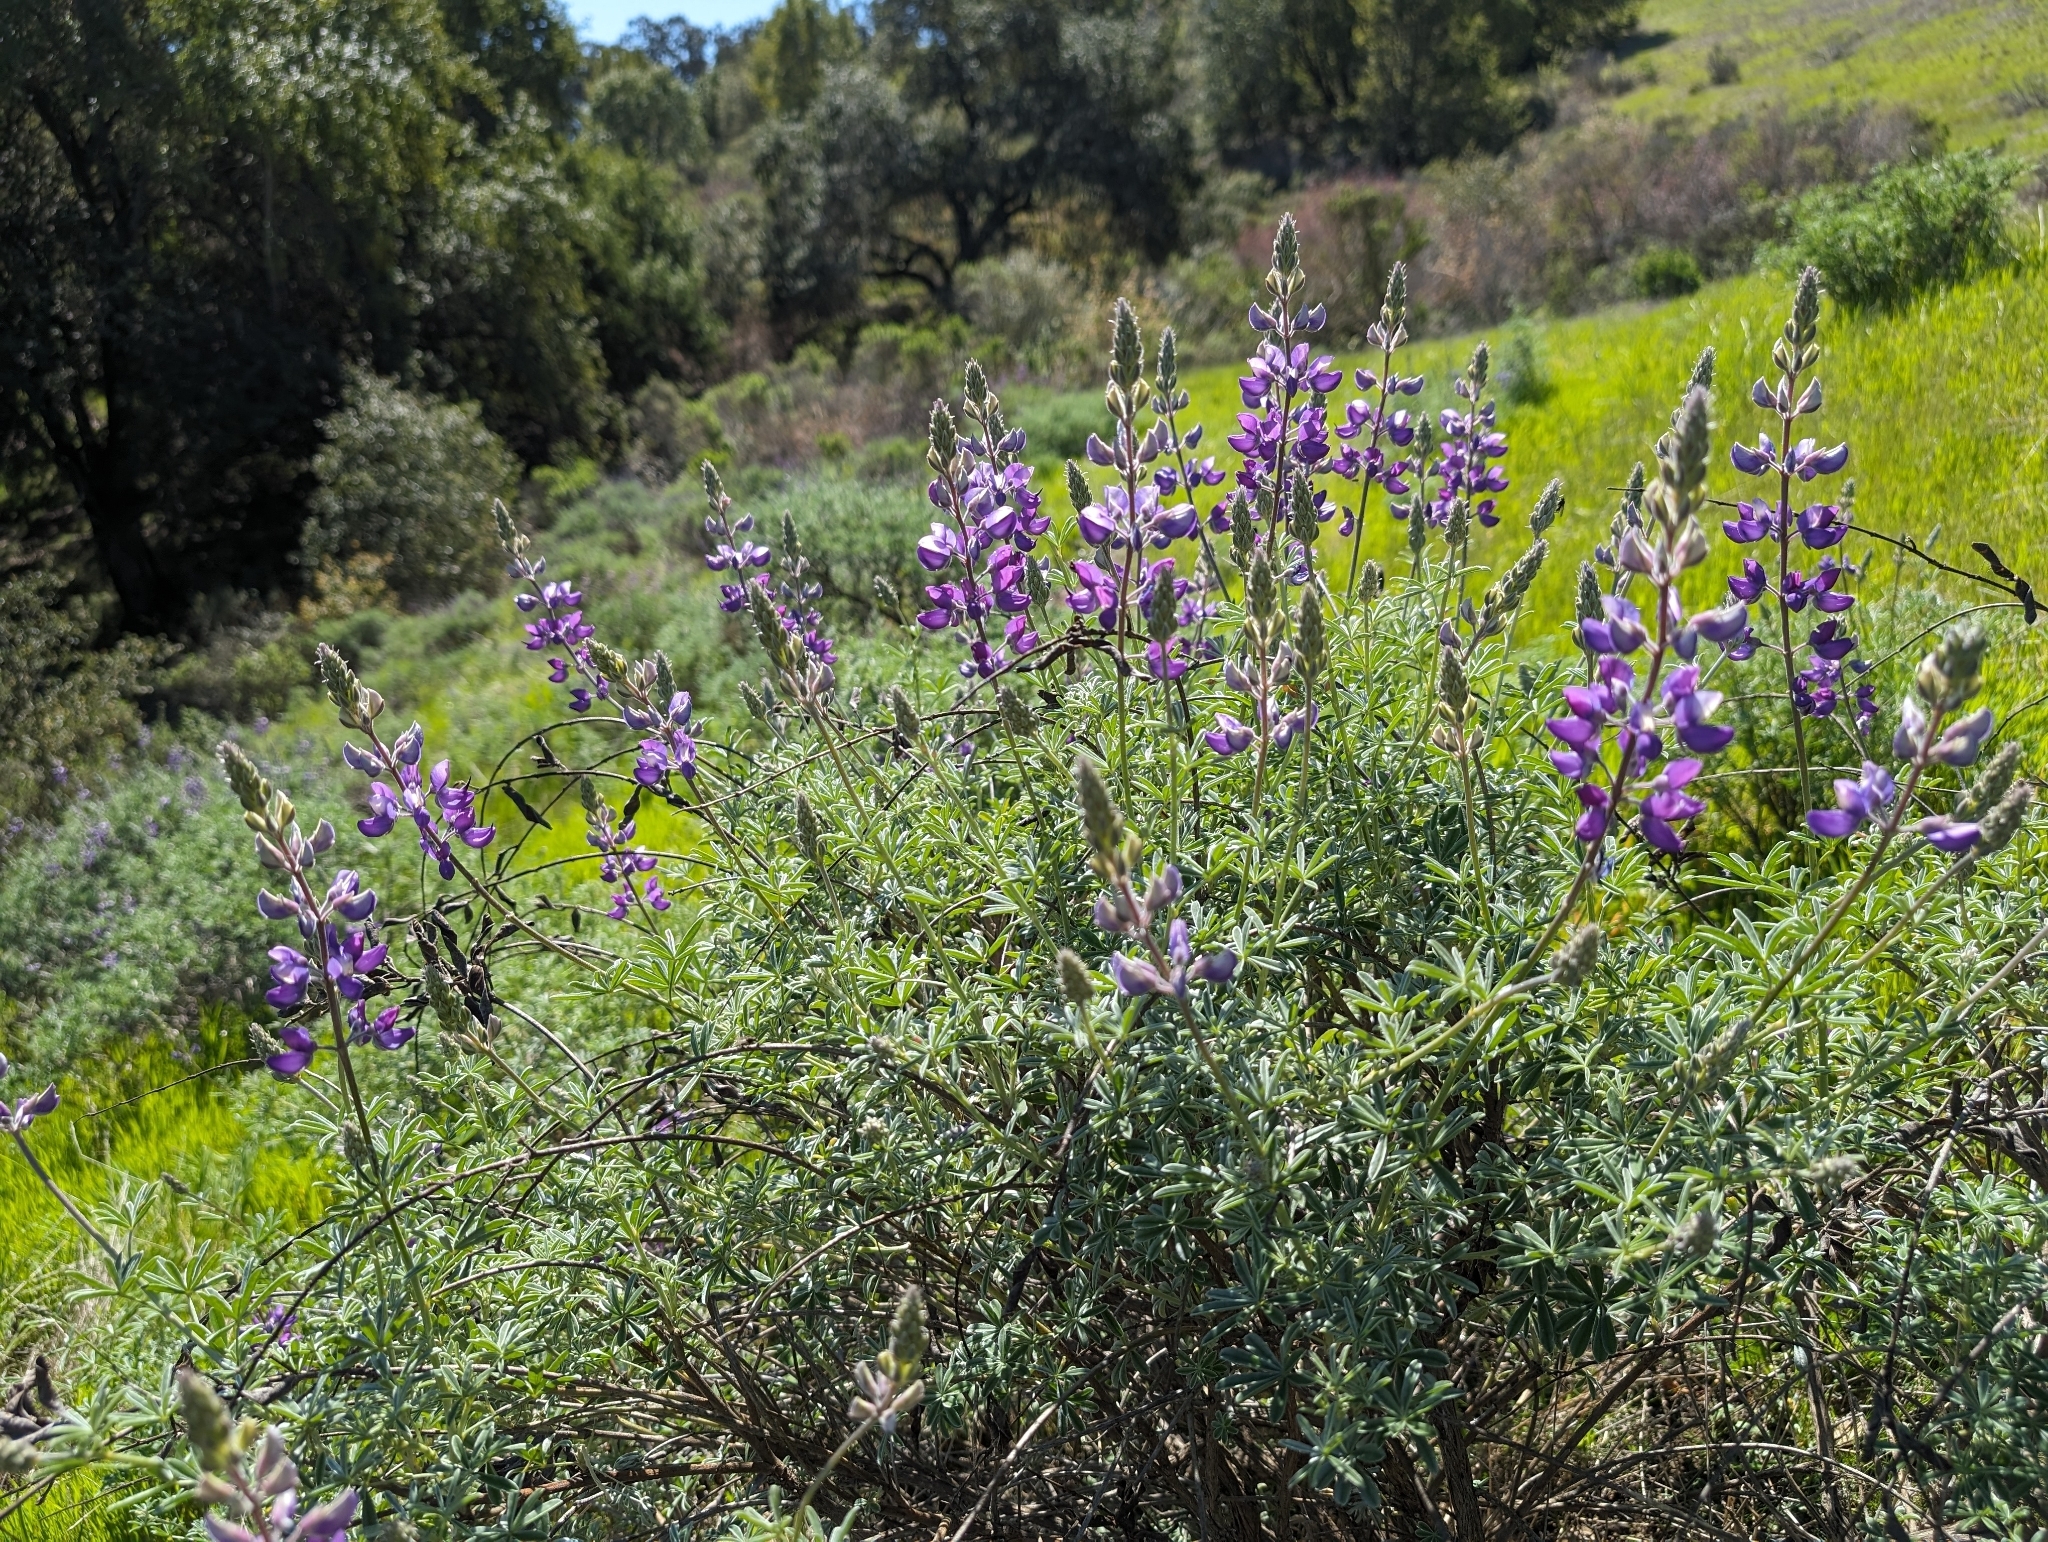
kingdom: Plantae
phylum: Tracheophyta
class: Magnoliopsida
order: Fabales
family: Fabaceae
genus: Lupinus
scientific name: Lupinus albifrons
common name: Foothill lupine
